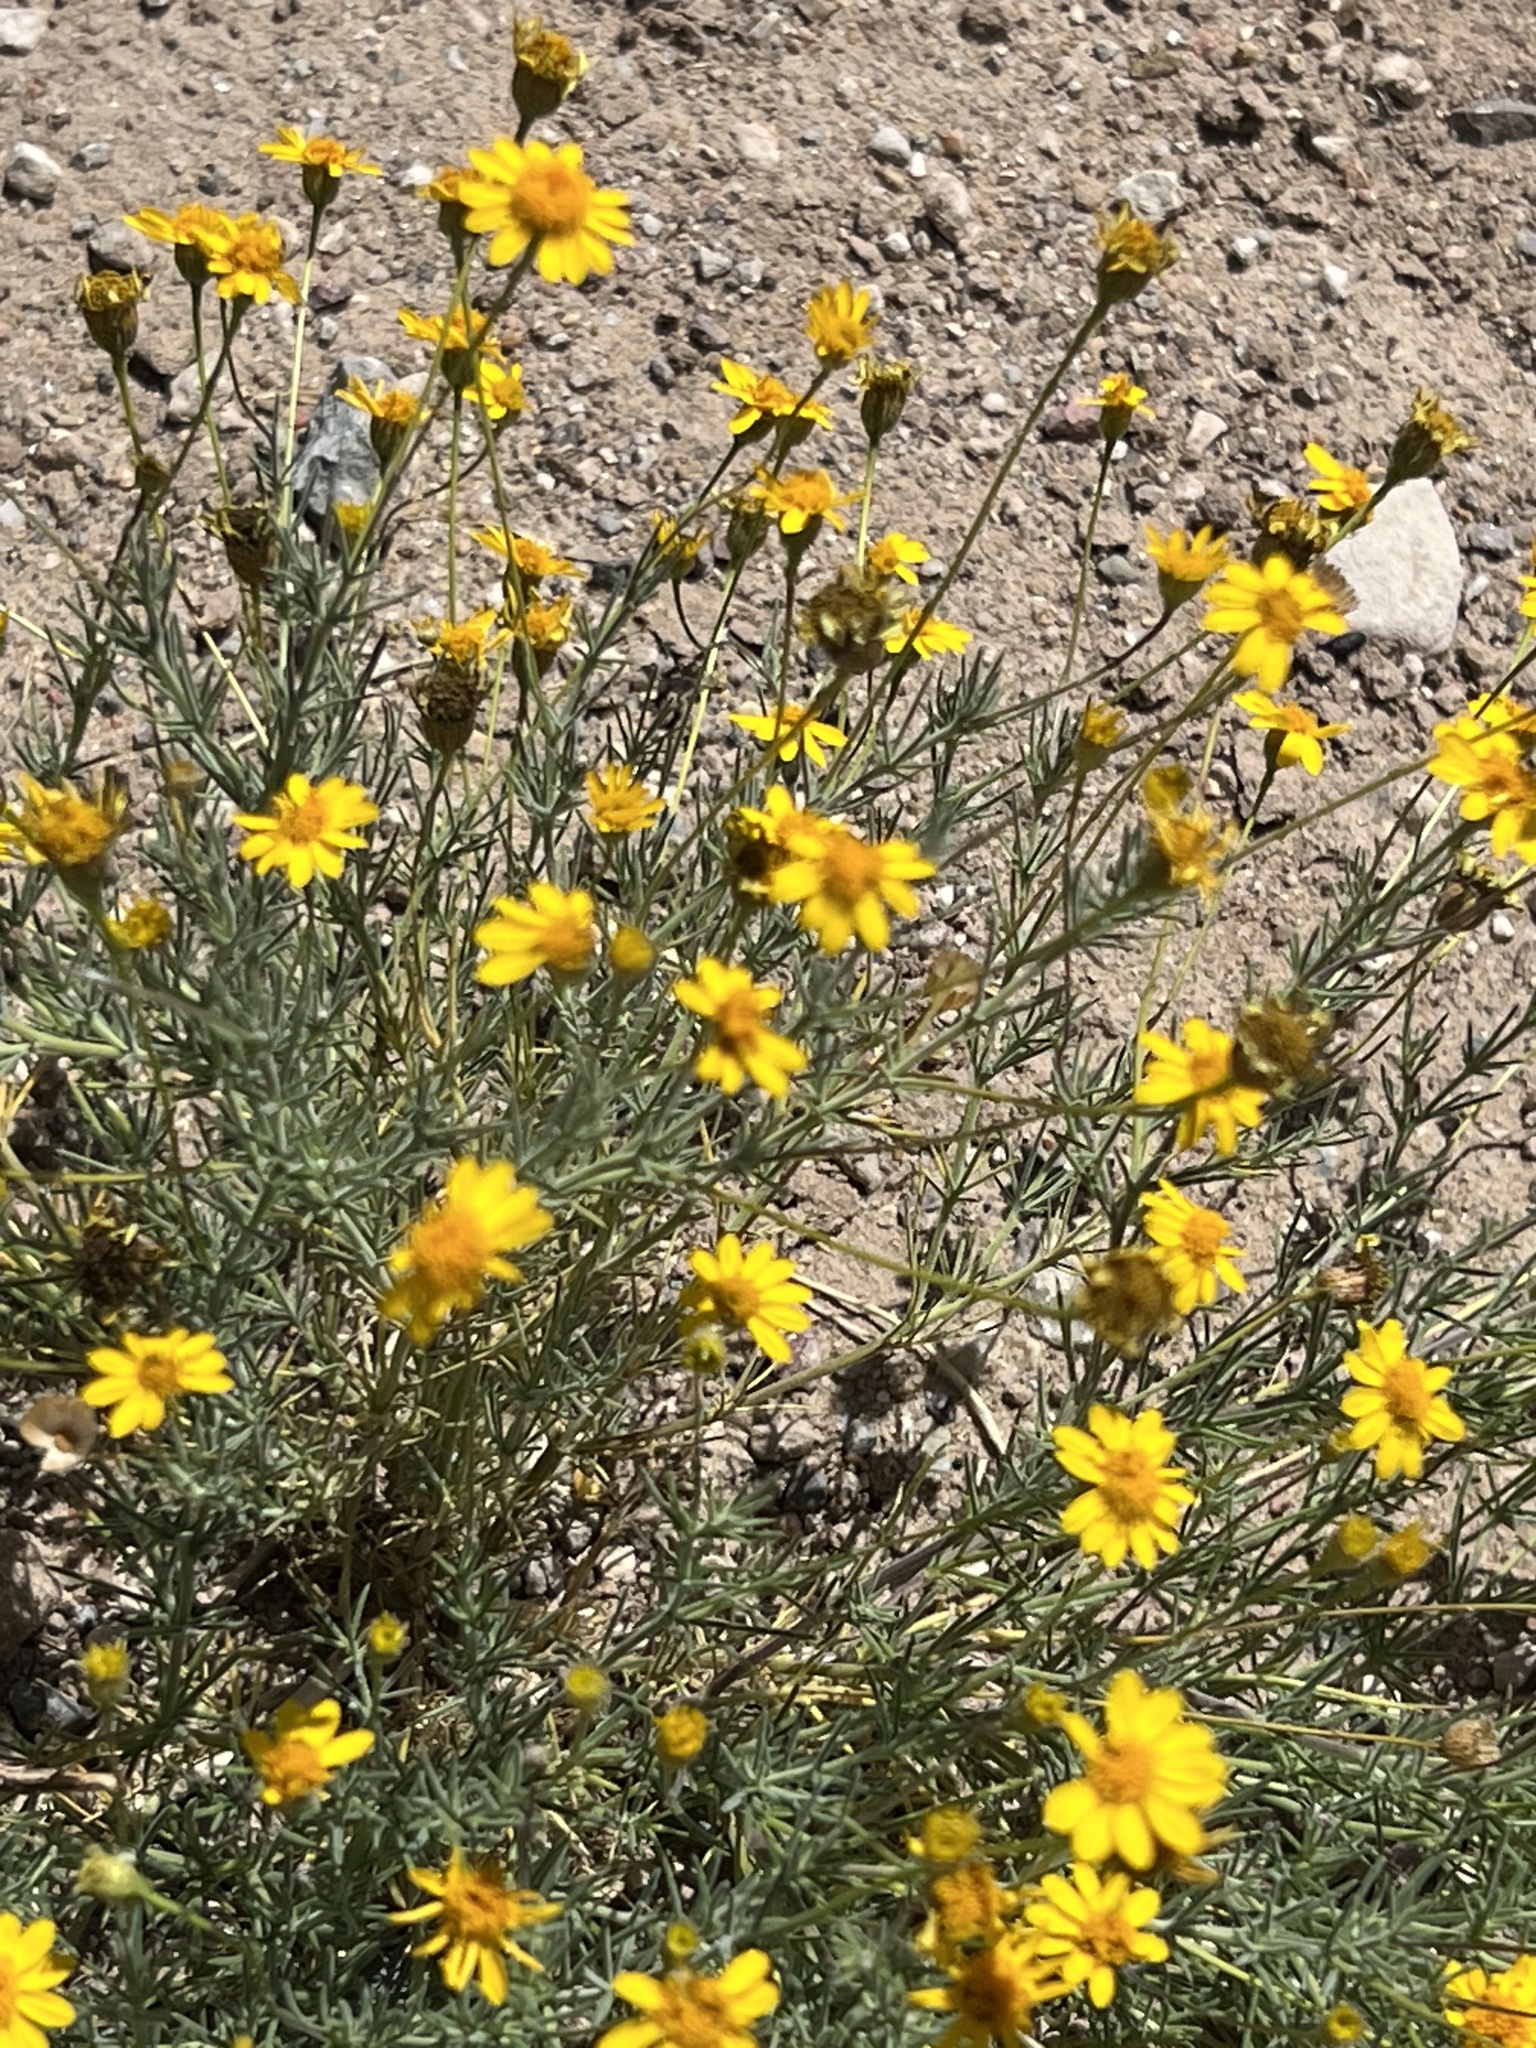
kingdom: Plantae
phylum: Tracheophyta
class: Magnoliopsida
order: Asterales
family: Asteraceae
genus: Thymophylla
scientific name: Thymophylla pentachaeta
